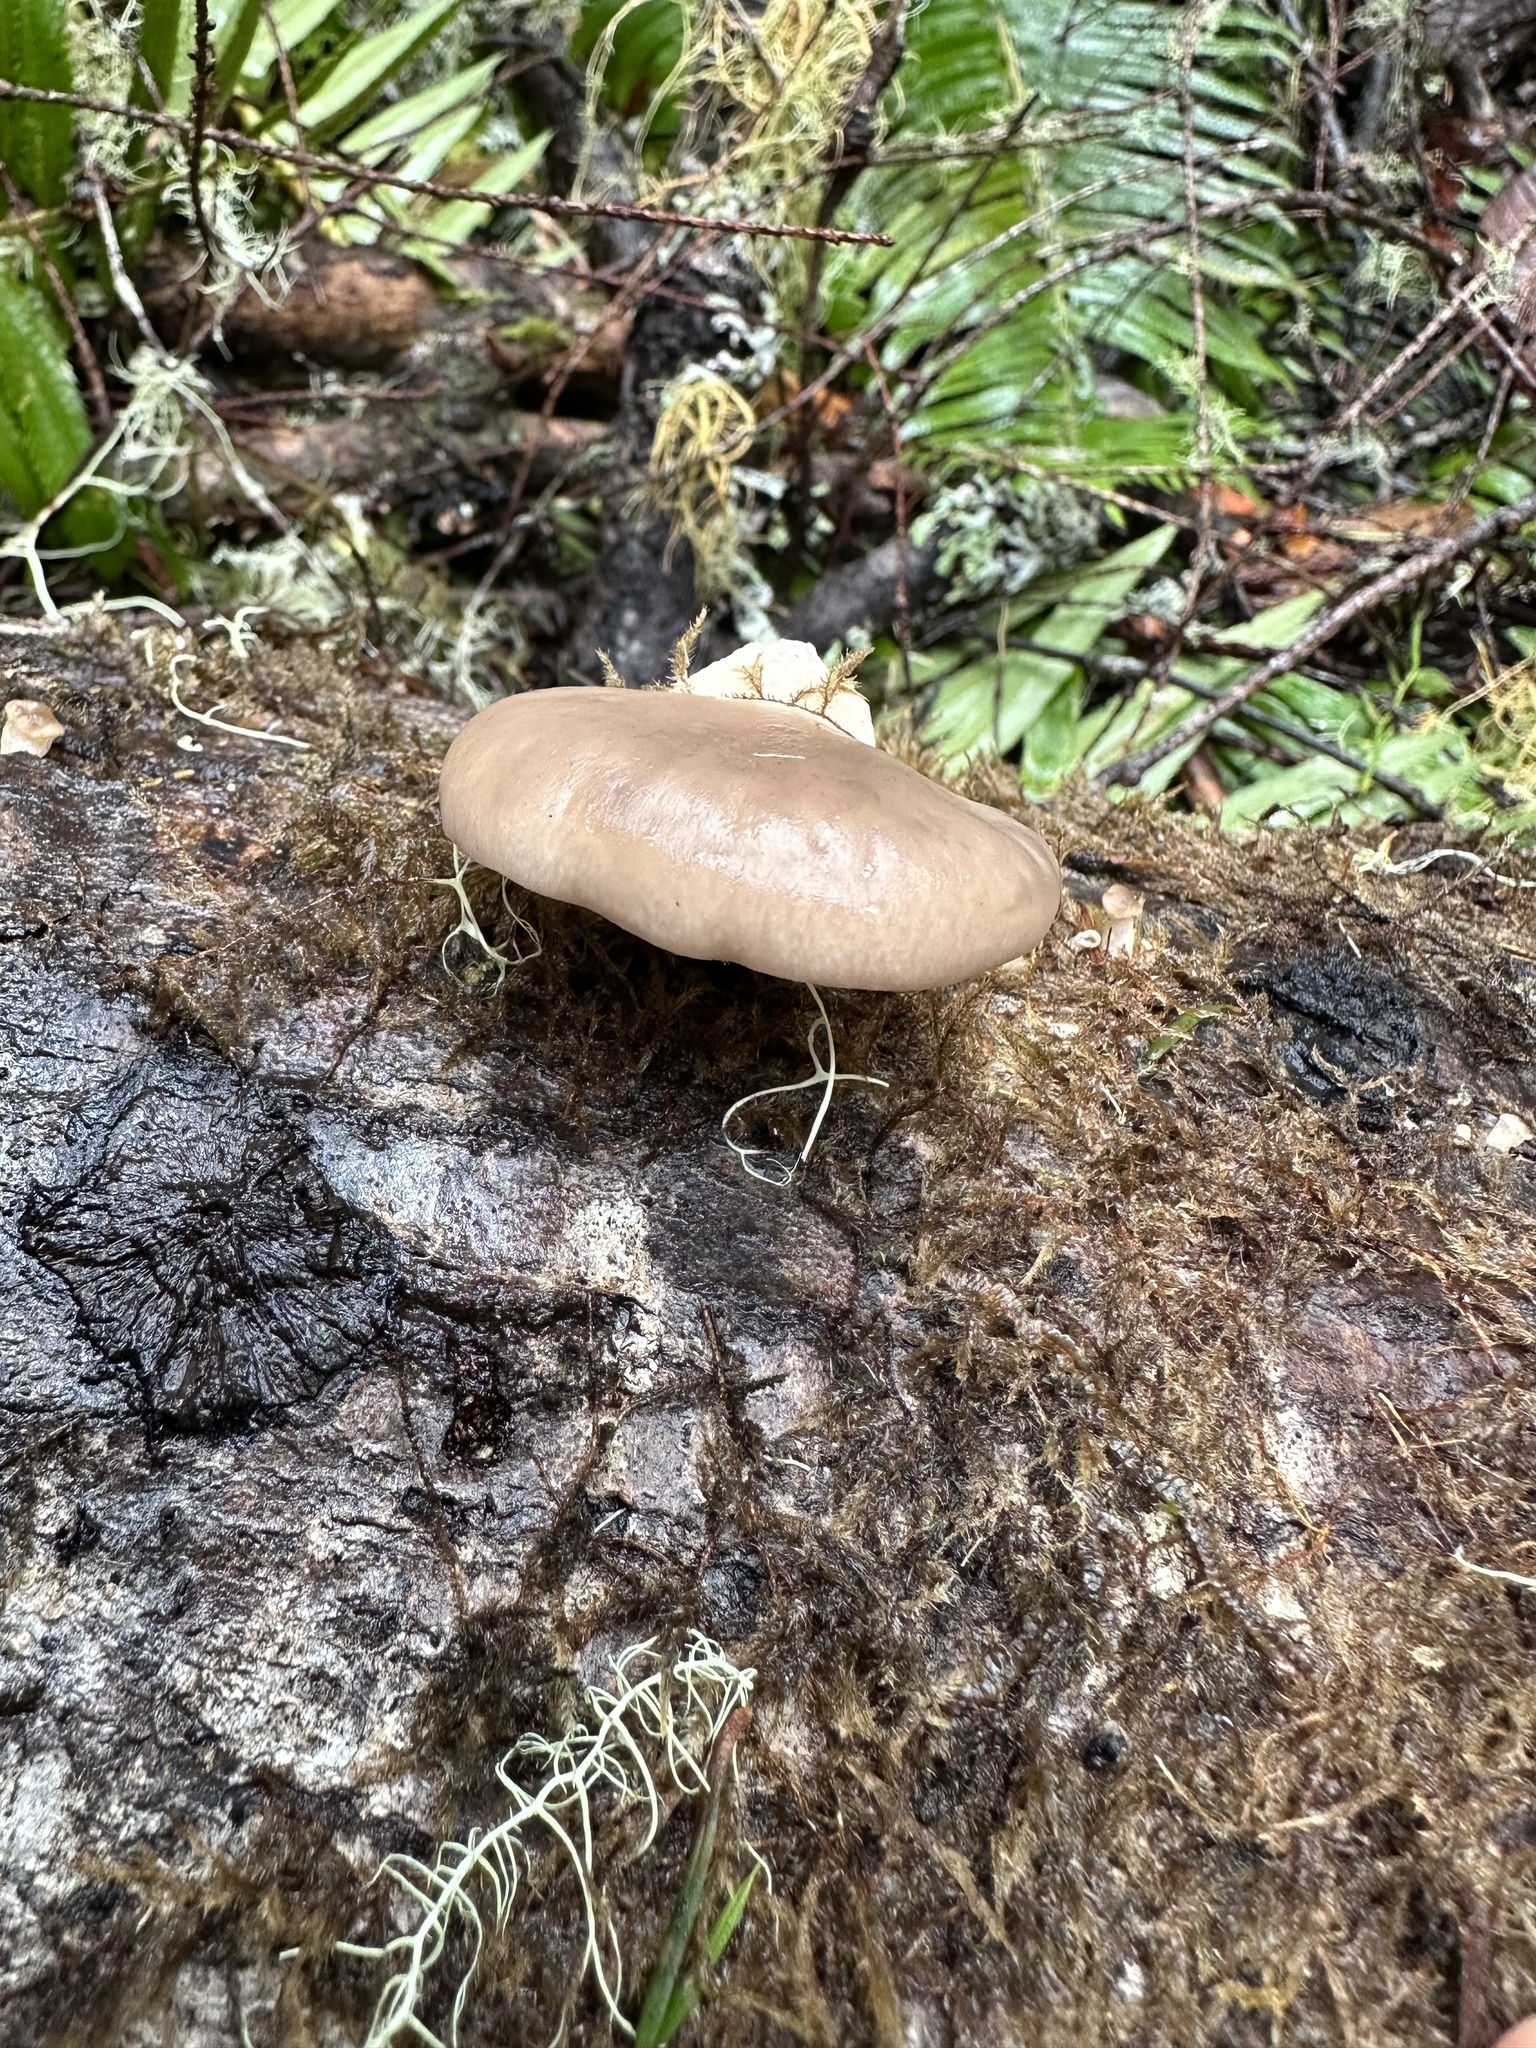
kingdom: Fungi
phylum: Basidiomycota
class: Agaricomycetes
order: Agaricales
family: Pleurotaceae
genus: Pleurotus
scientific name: Pleurotus ostreatus
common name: Oyster mushroom
